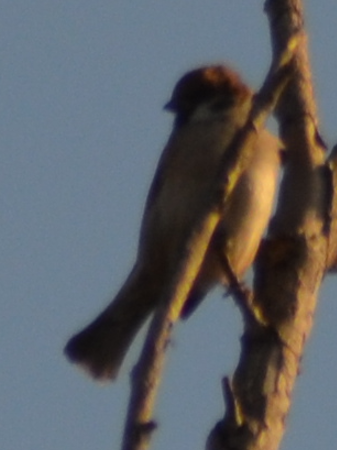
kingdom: Animalia
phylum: Chordata
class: Aves
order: Passeriformes
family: Passeridae
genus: Passer
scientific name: Passer montanus
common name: Eurasian tree sparrow
